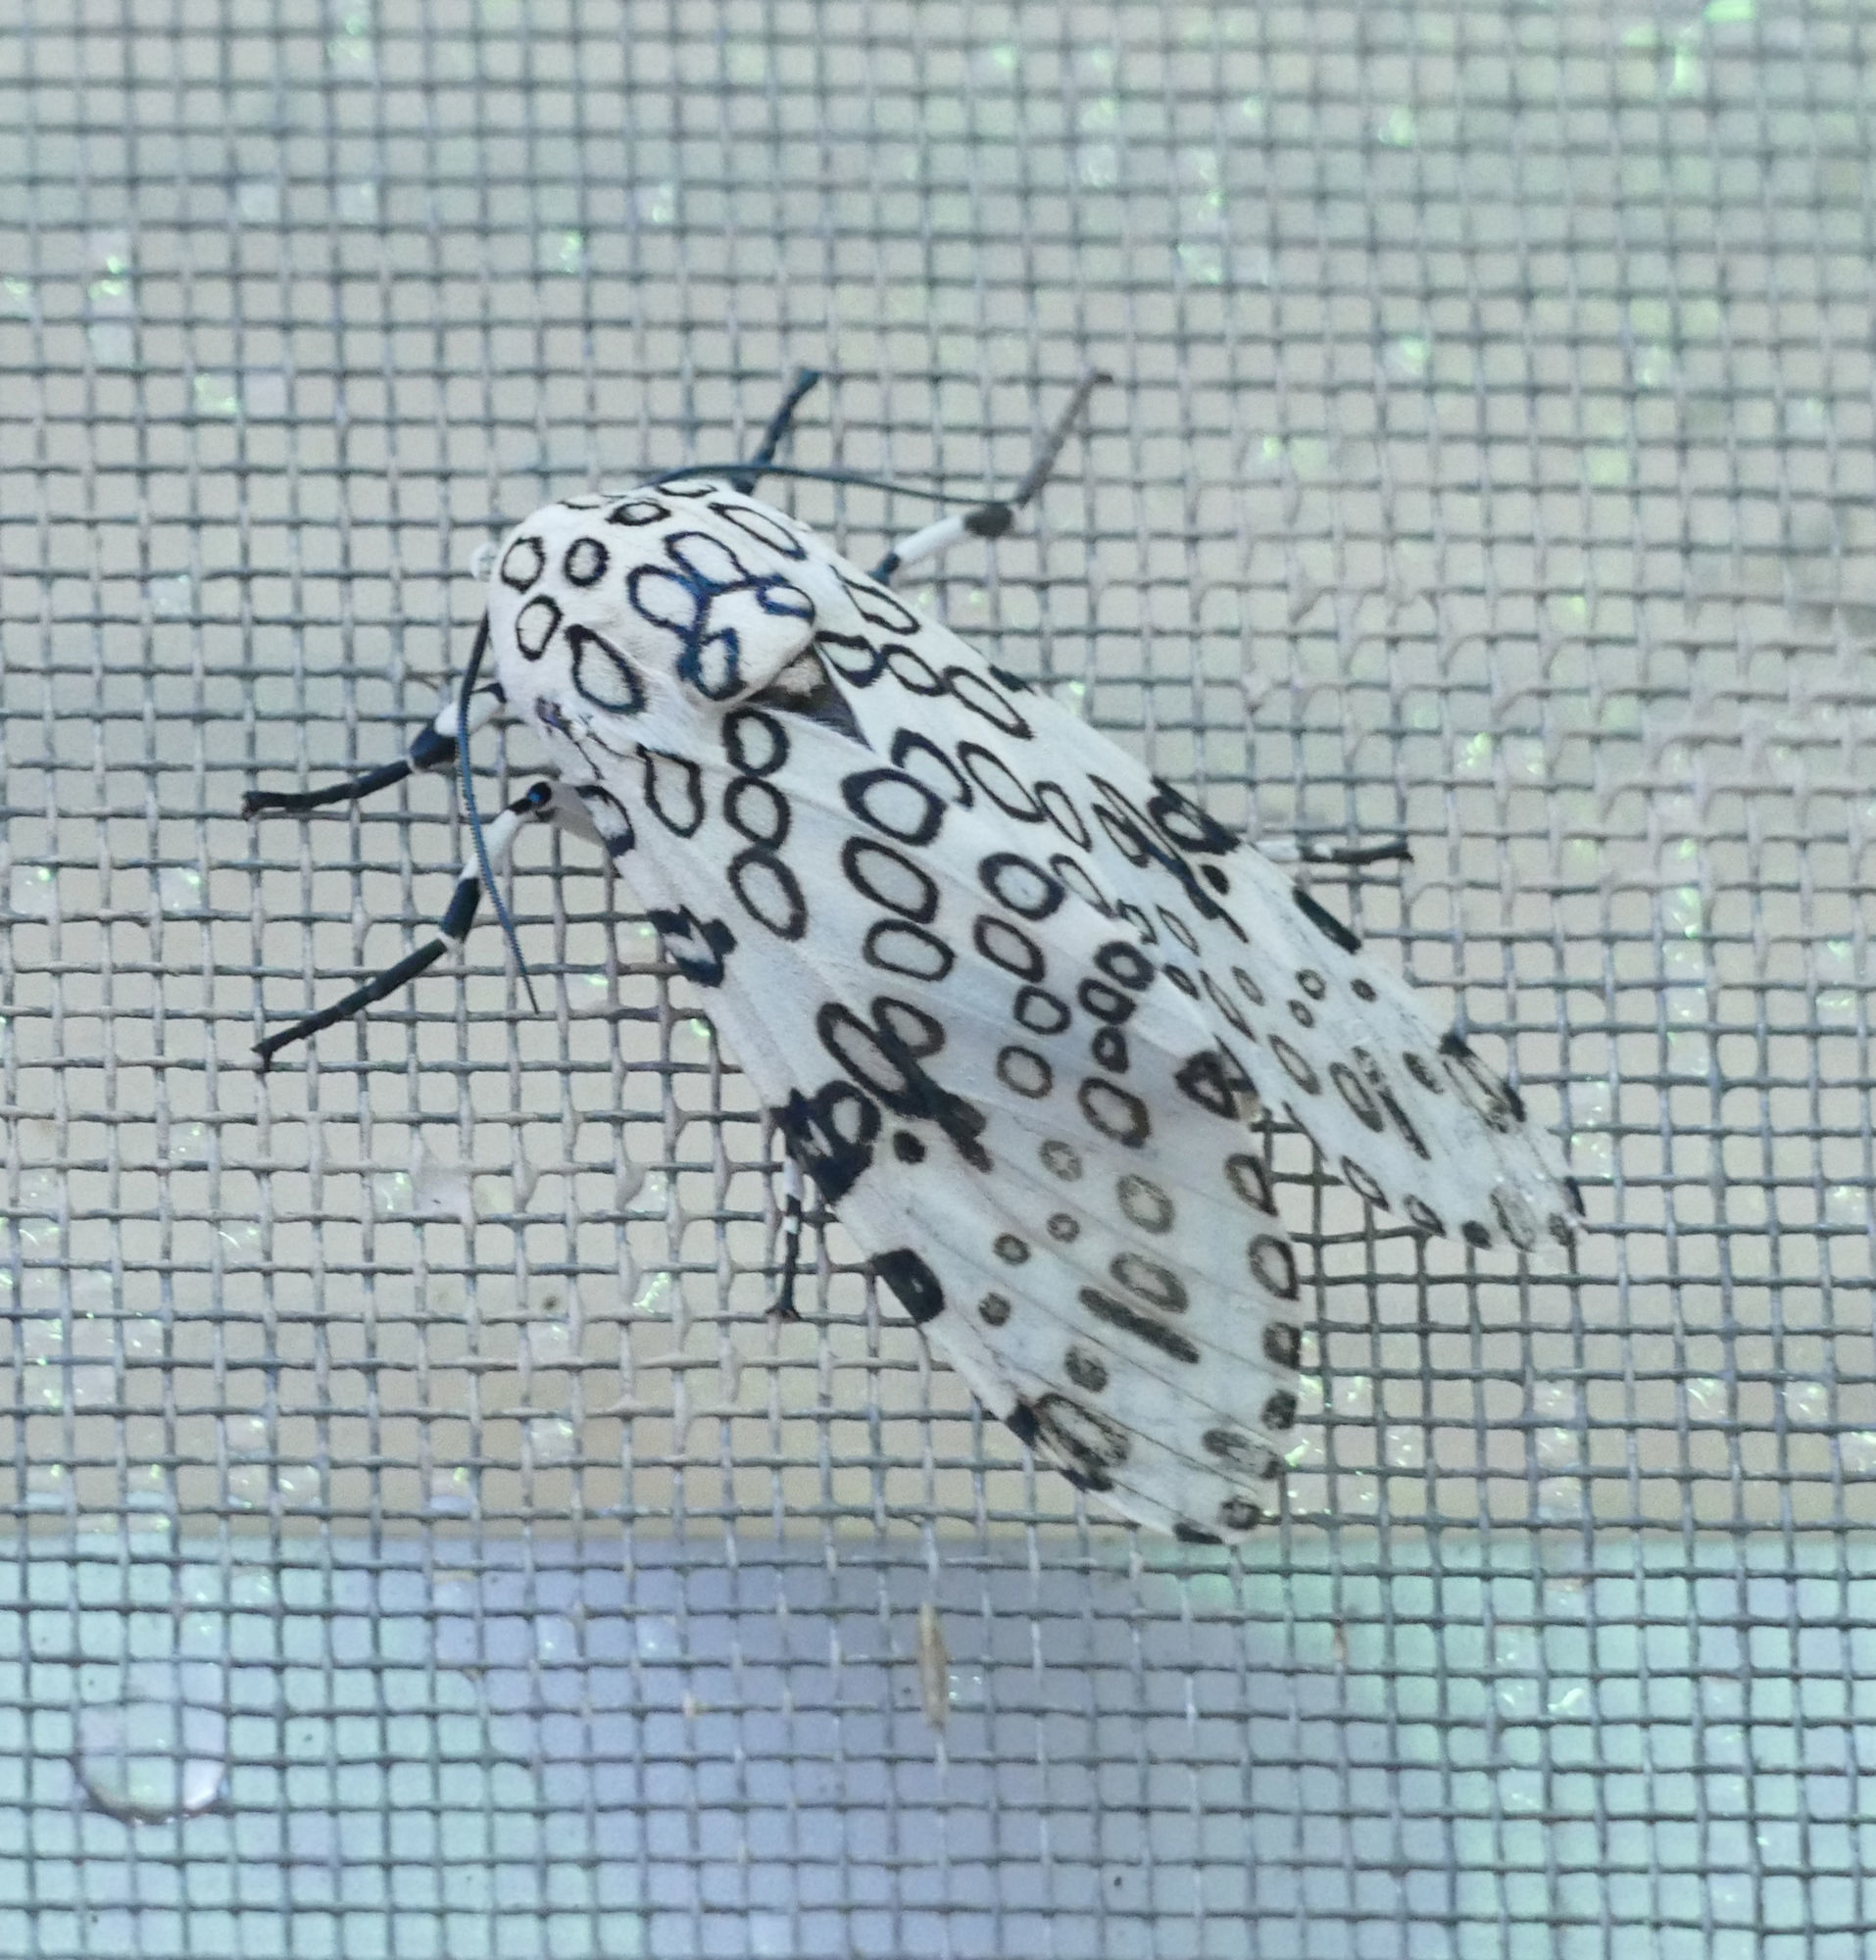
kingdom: Animalia
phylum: Arthropoda
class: Insecta
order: Lepidoptera
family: Erebidae
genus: Hypercompe
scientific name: Hypercompe scribonia
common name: Giant leopard moth
